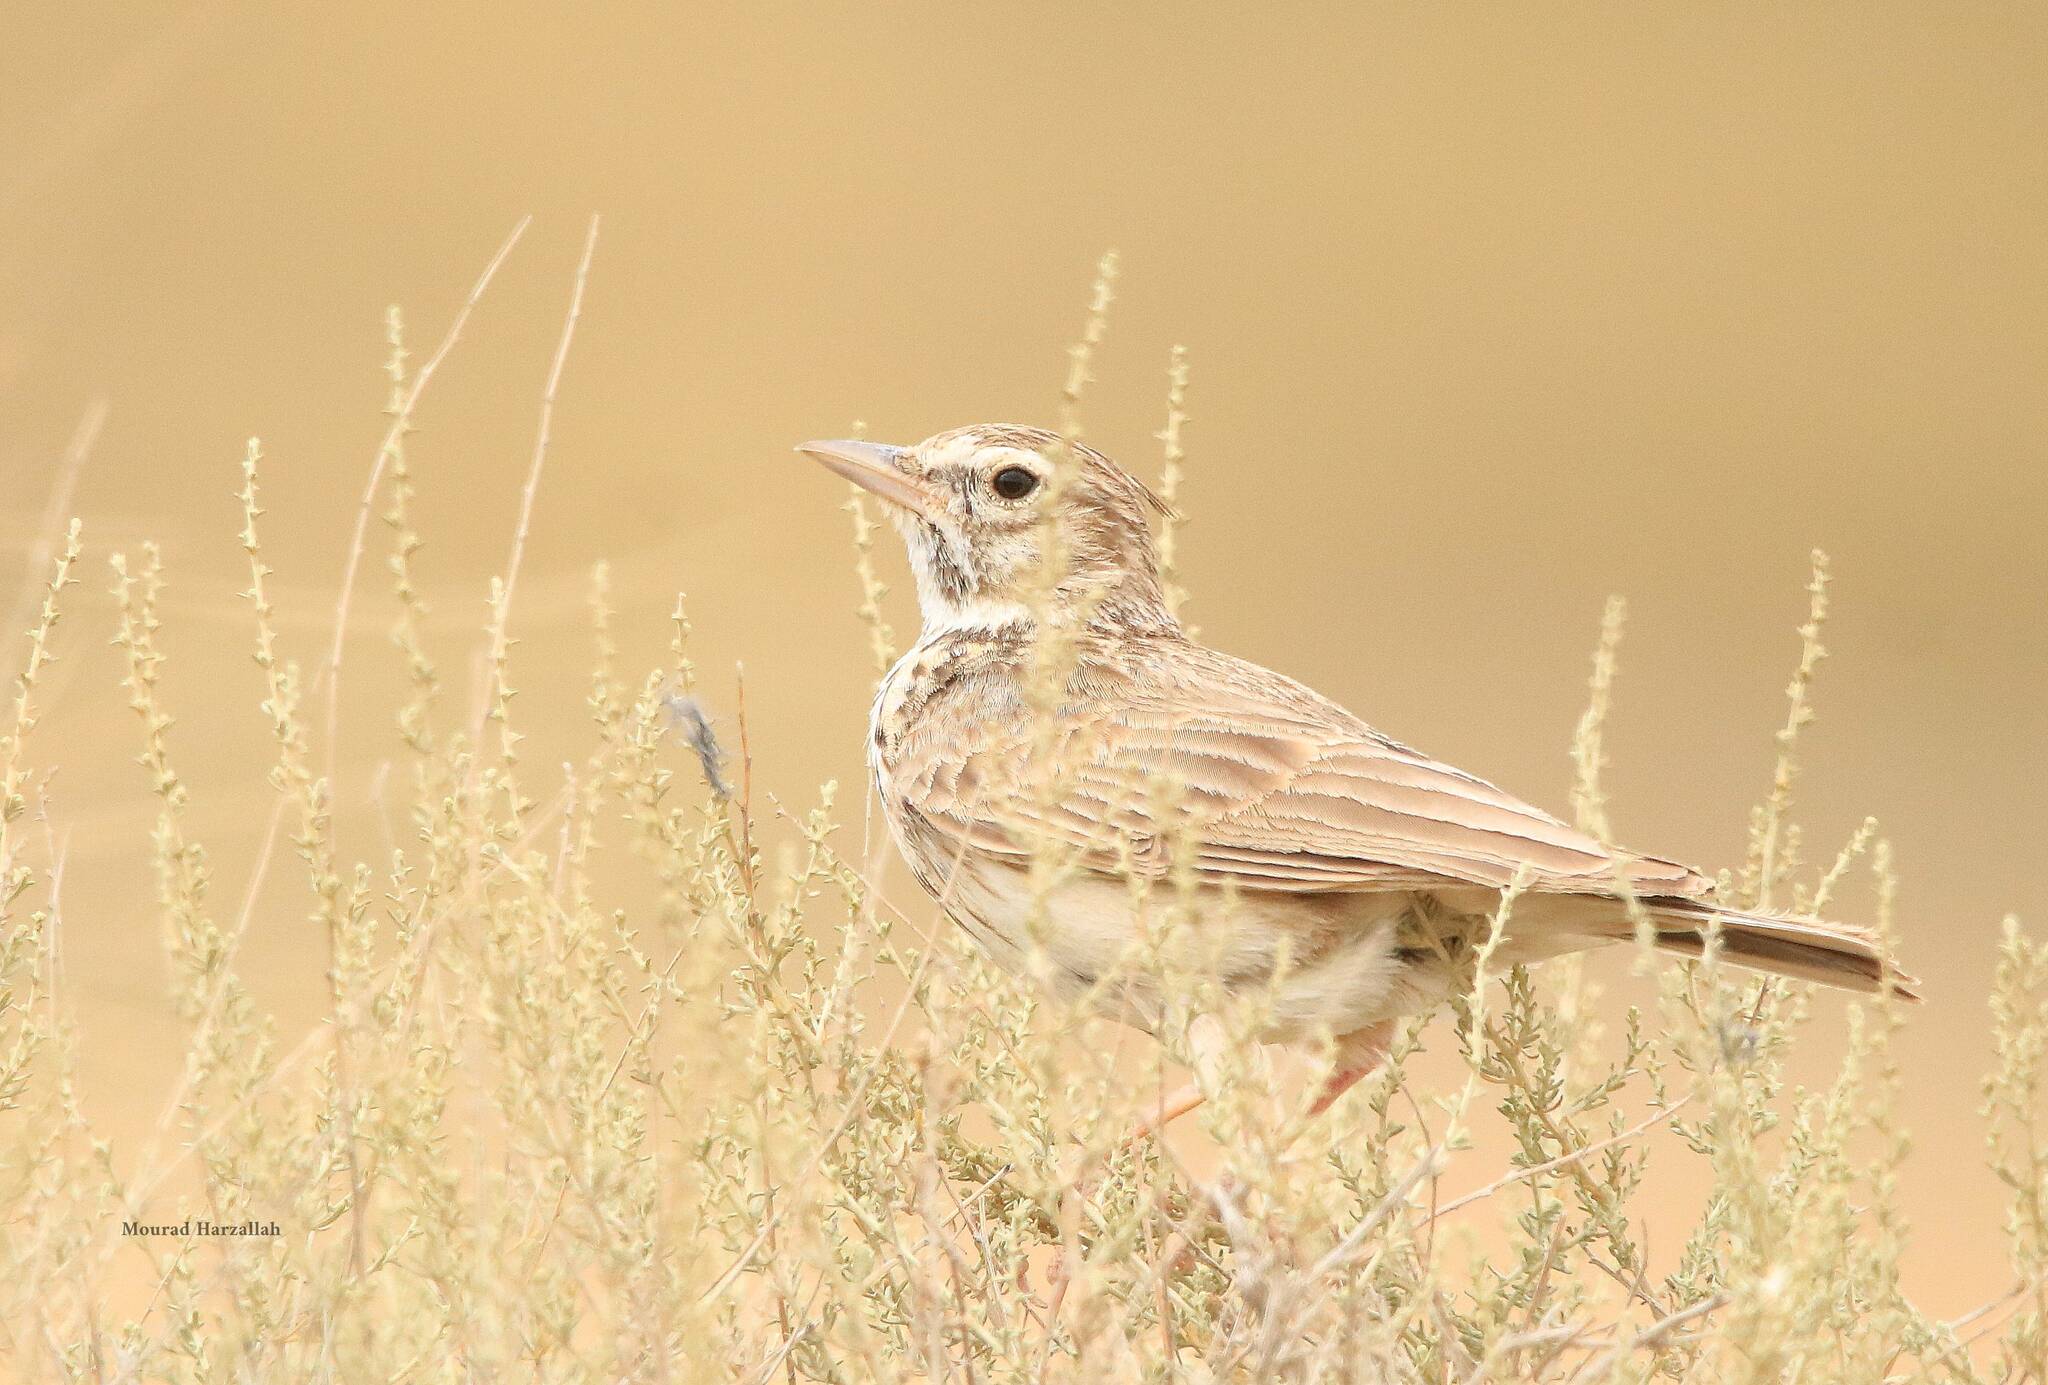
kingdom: Animalia
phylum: Chordata
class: Aves
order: Passeriformes
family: Alaudidae
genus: Galerida
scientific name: Galerida theklae
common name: Thekla lark
